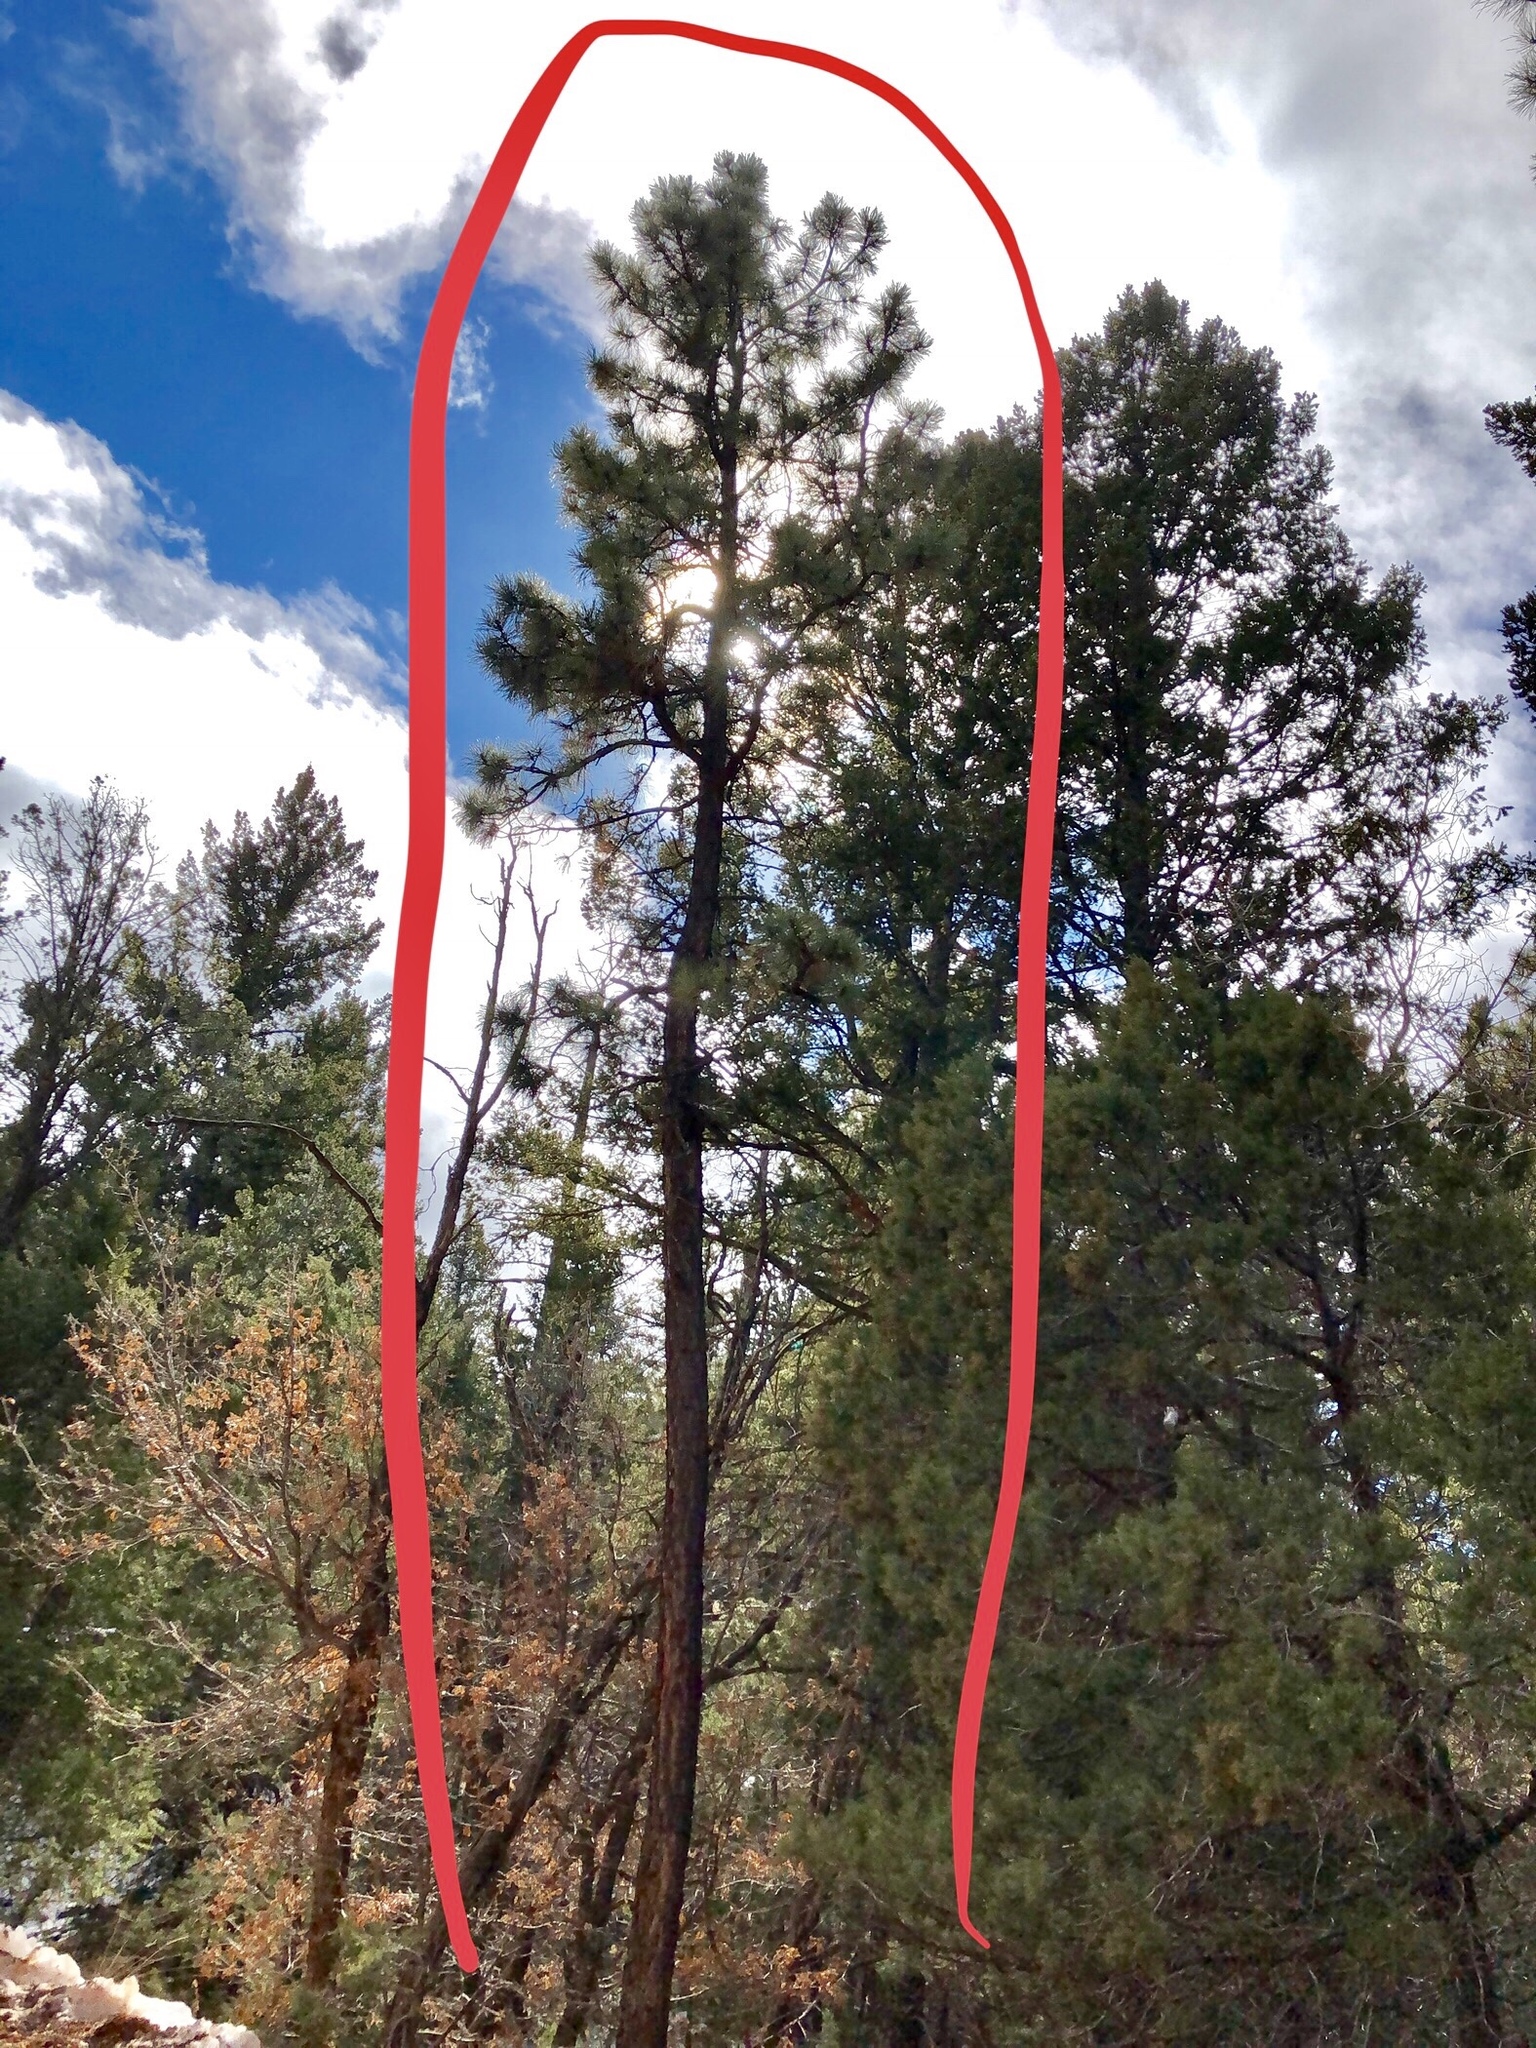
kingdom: Plantae
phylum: Tracheophyta
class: Pinopsida
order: Pinales
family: Pinaceae
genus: Pinus
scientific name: Pinus ponderosa
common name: Western yellow-pine
